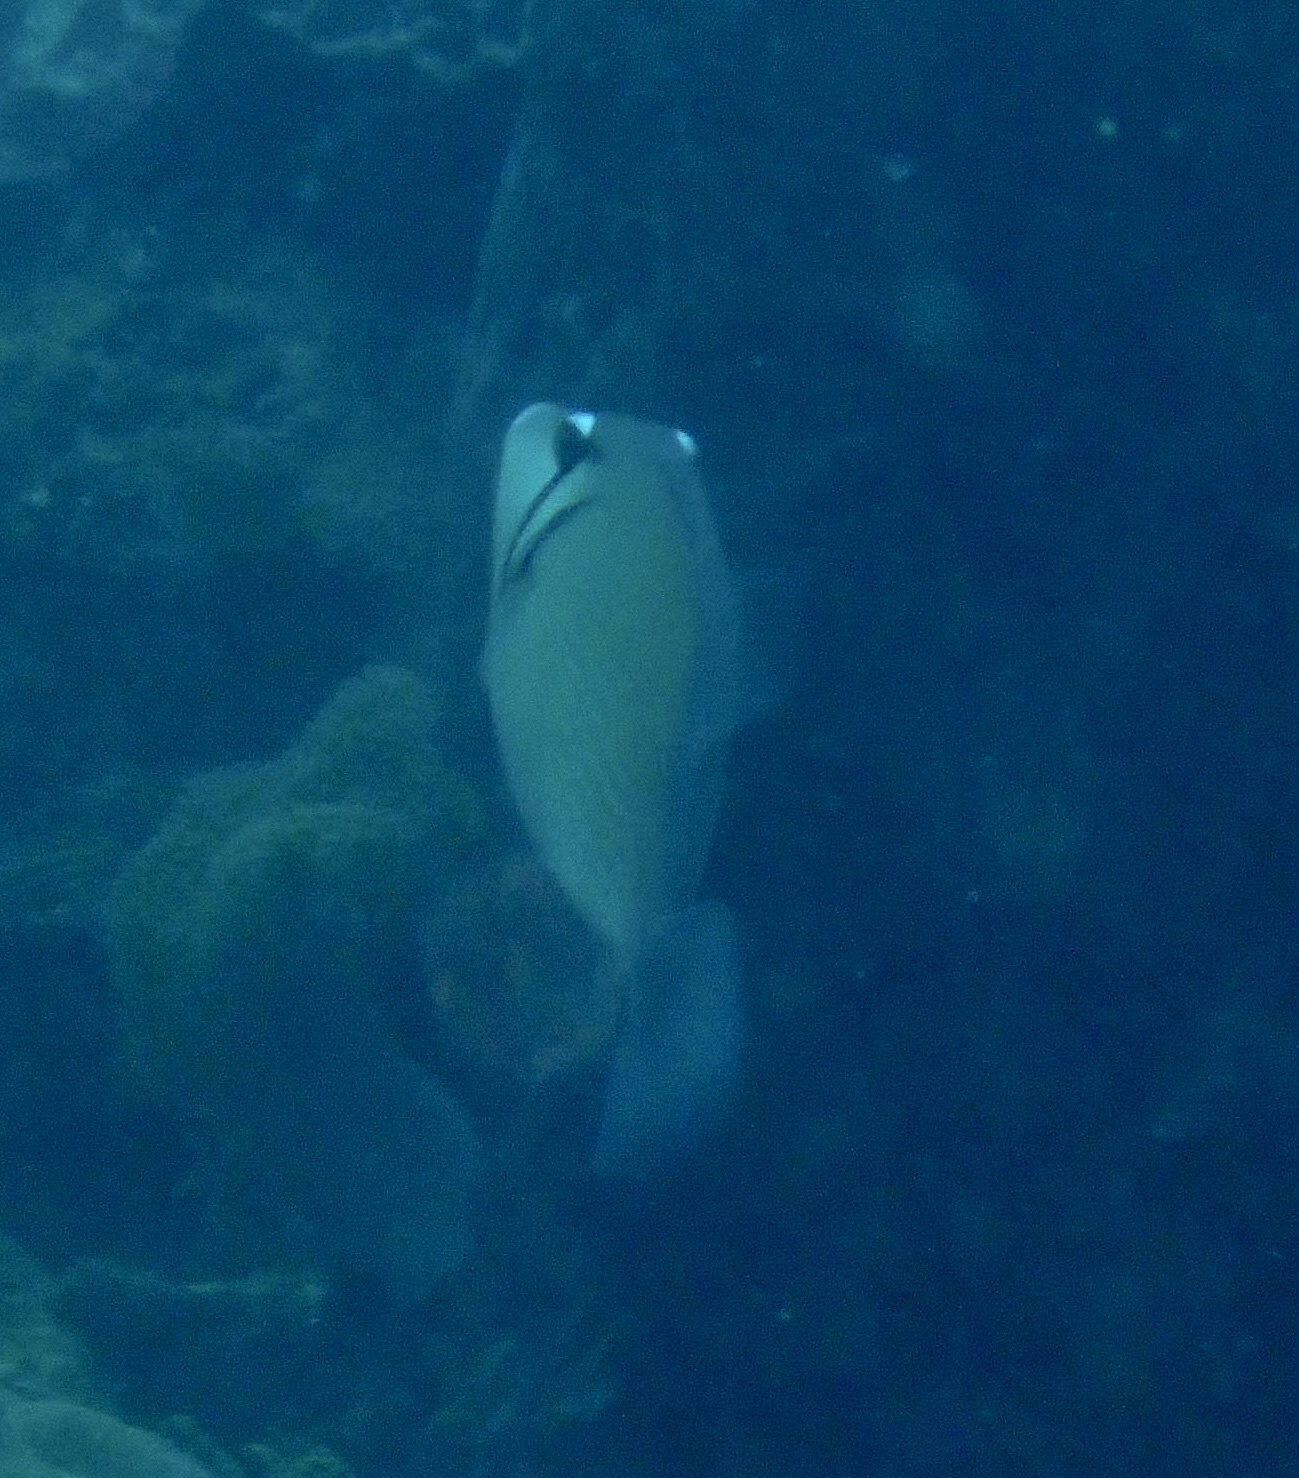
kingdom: Animalia
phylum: Chordata
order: Tetraodontiformes
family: Balistidae
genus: Sufflamen
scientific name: Sufflamen bursa
